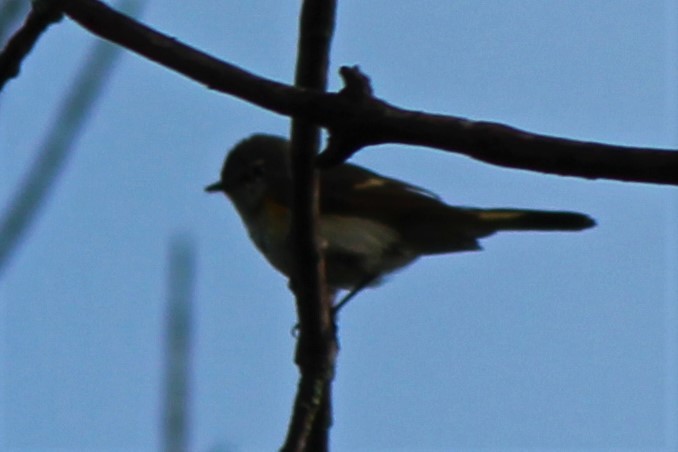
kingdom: Animalia
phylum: Chordata
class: Aves
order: Passeriformes
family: Parulidae
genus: Setophaga
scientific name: Setophaga ruticilla
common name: American redstart
